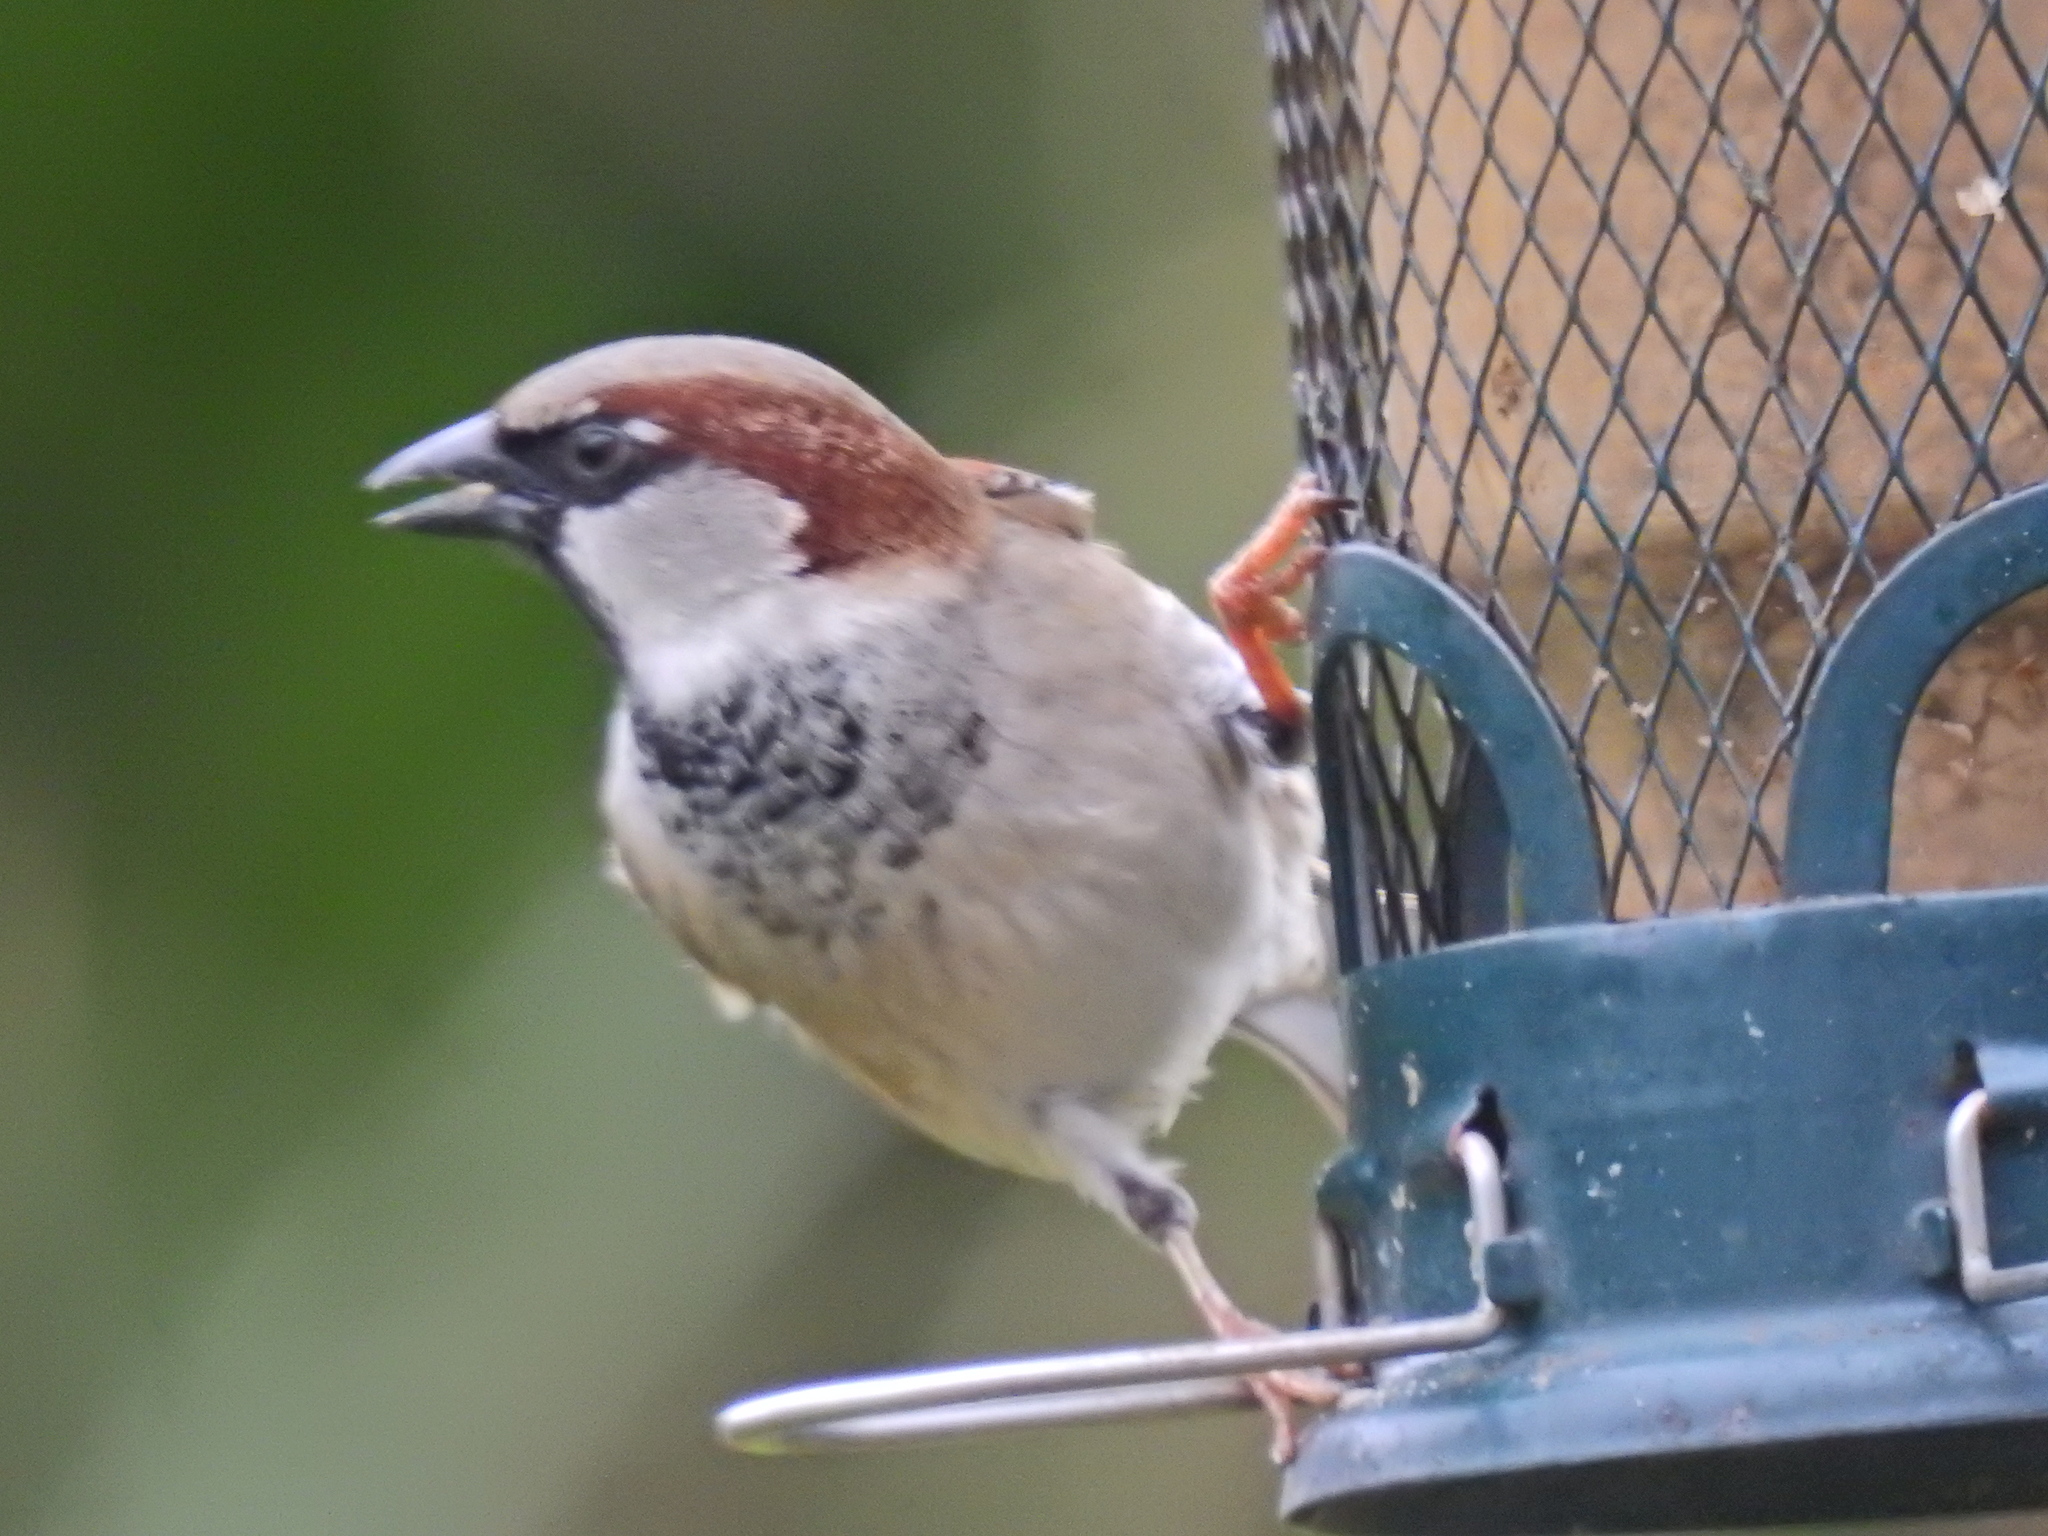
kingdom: Animalia
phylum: Chordata
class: Aves
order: Passeriformes
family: Passeridae
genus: Passer
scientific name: Passer domesticus
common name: House sparrow
